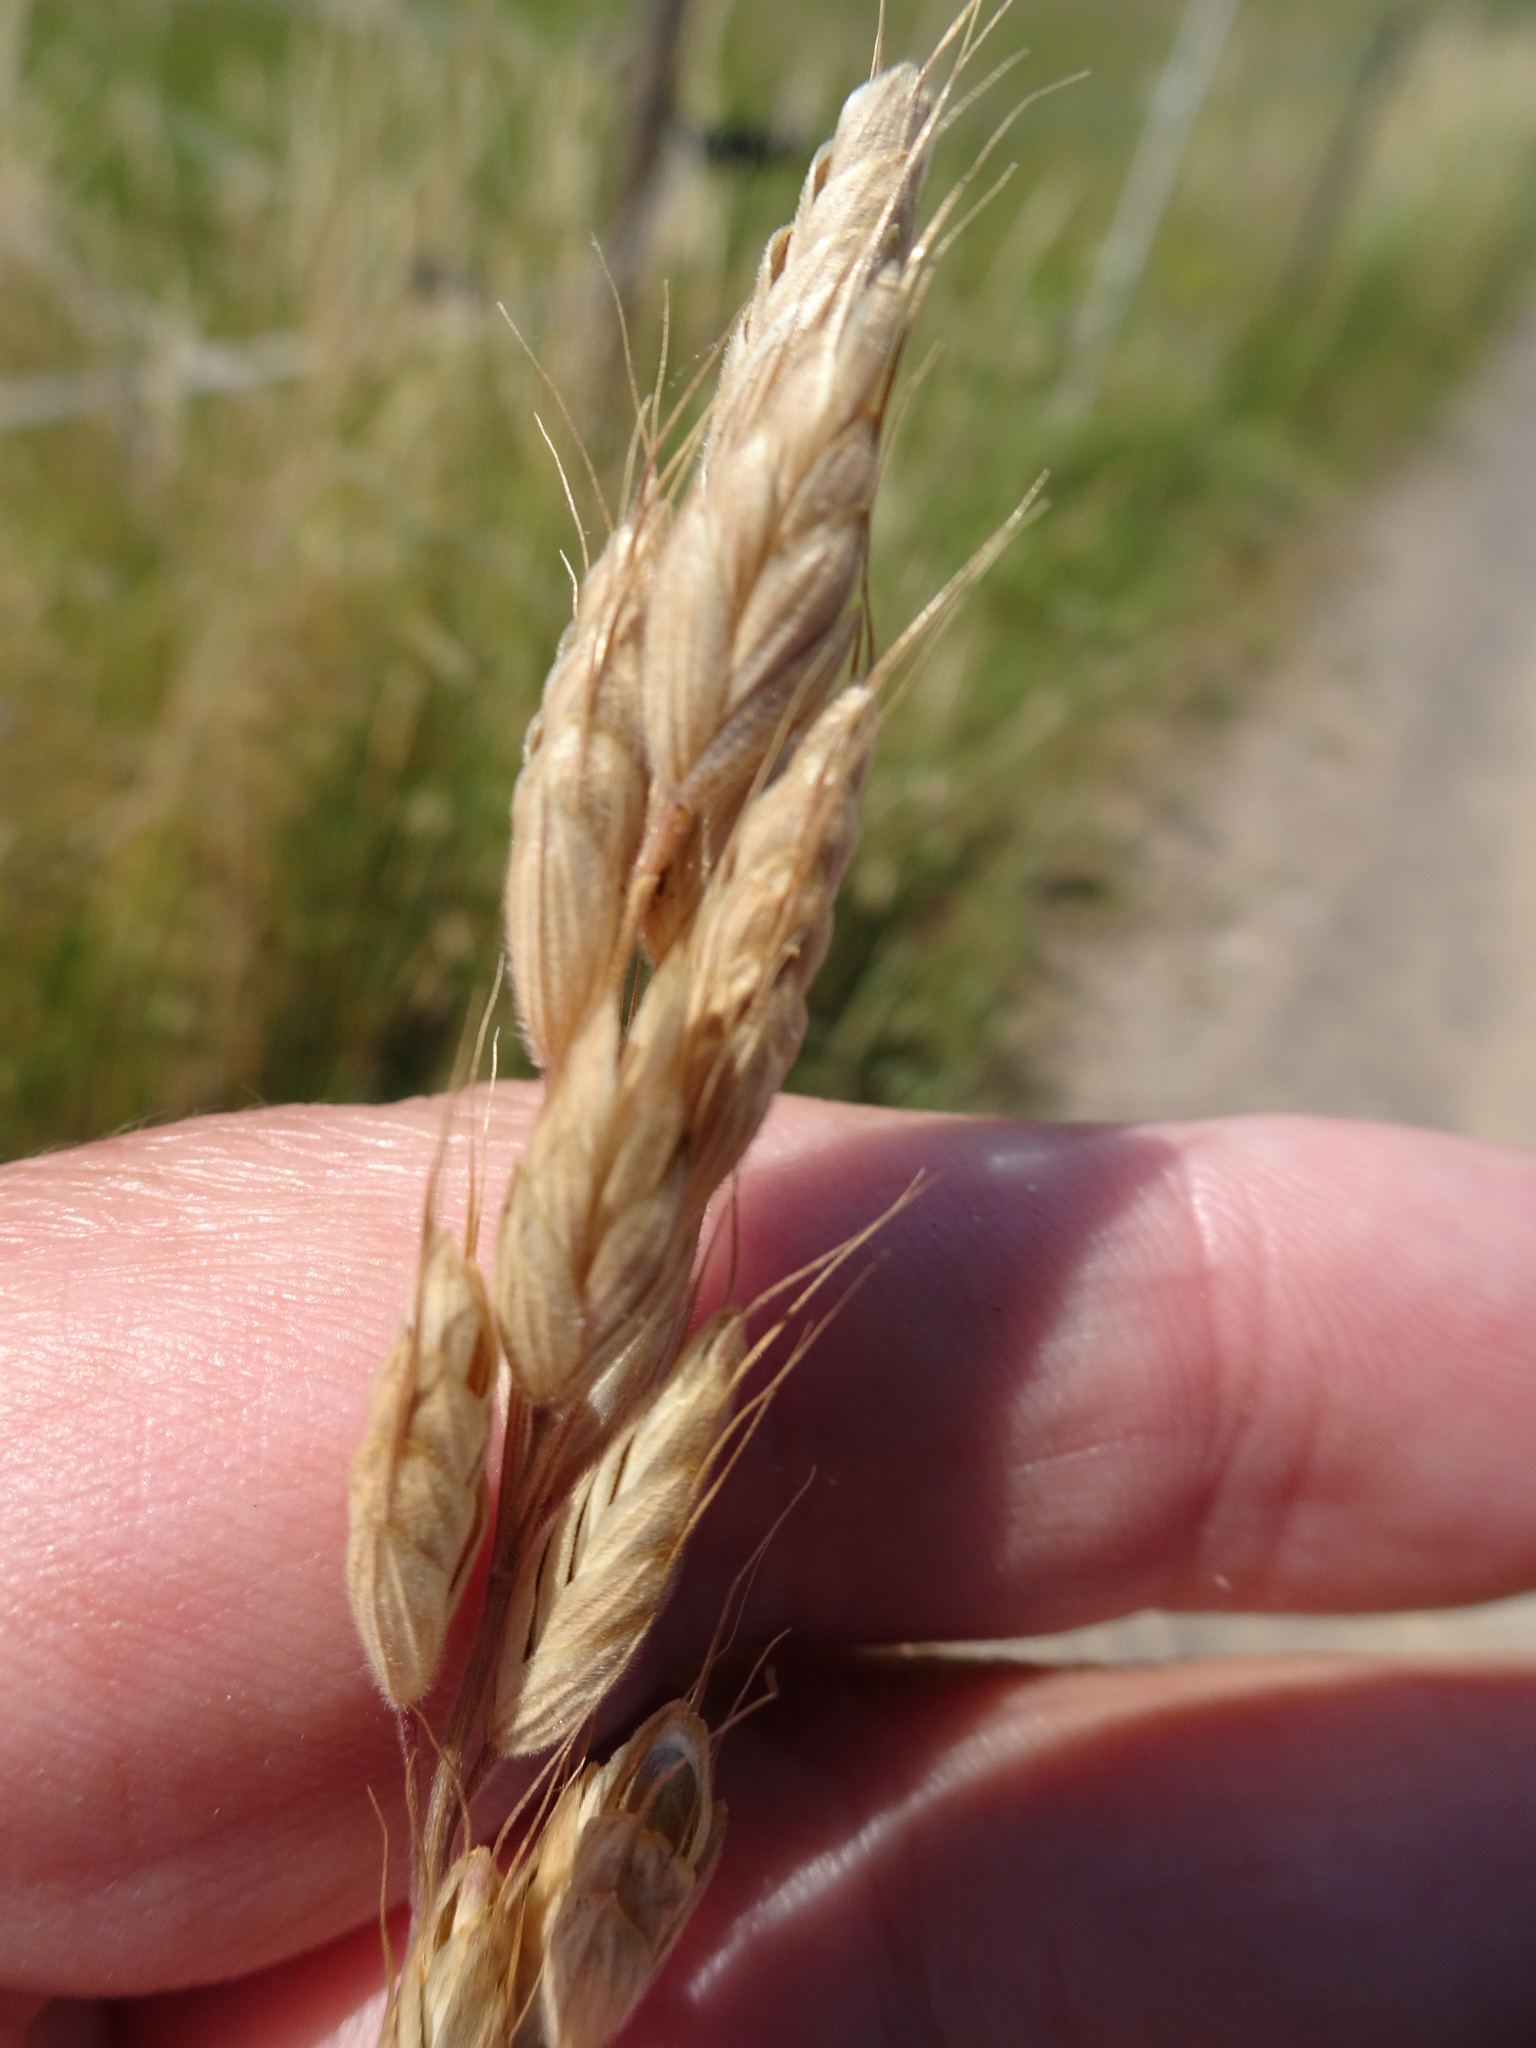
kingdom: Plantae
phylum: Tracheophyta
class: Liliopsida
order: Poales
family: Poaceae
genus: Bromus
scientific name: Bromus hordeaceus
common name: Soft brome
